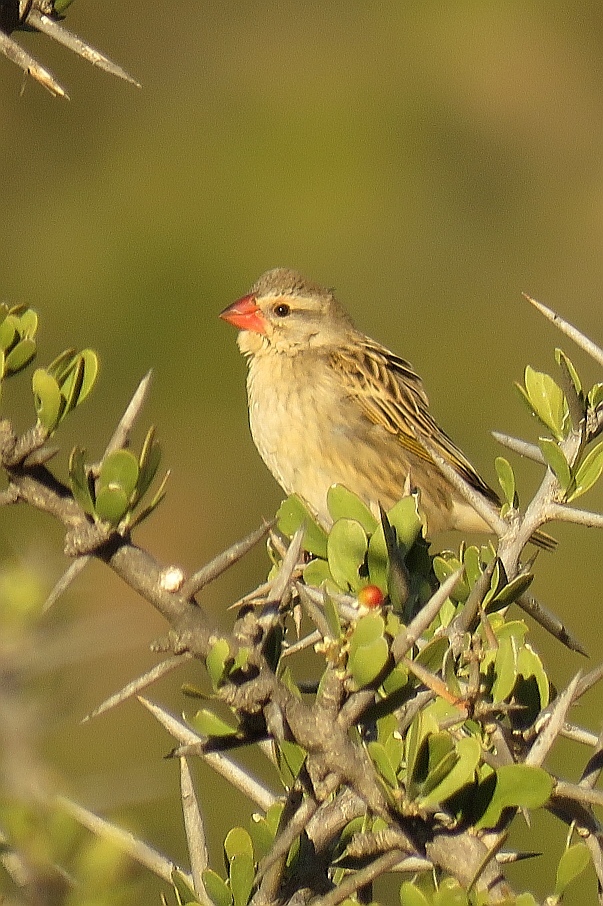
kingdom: Animalia
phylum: Chordata
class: Aves
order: Passeriformes
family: Ploceidae
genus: Quelea
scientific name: Quelea quelea
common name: Red-billed quelea
